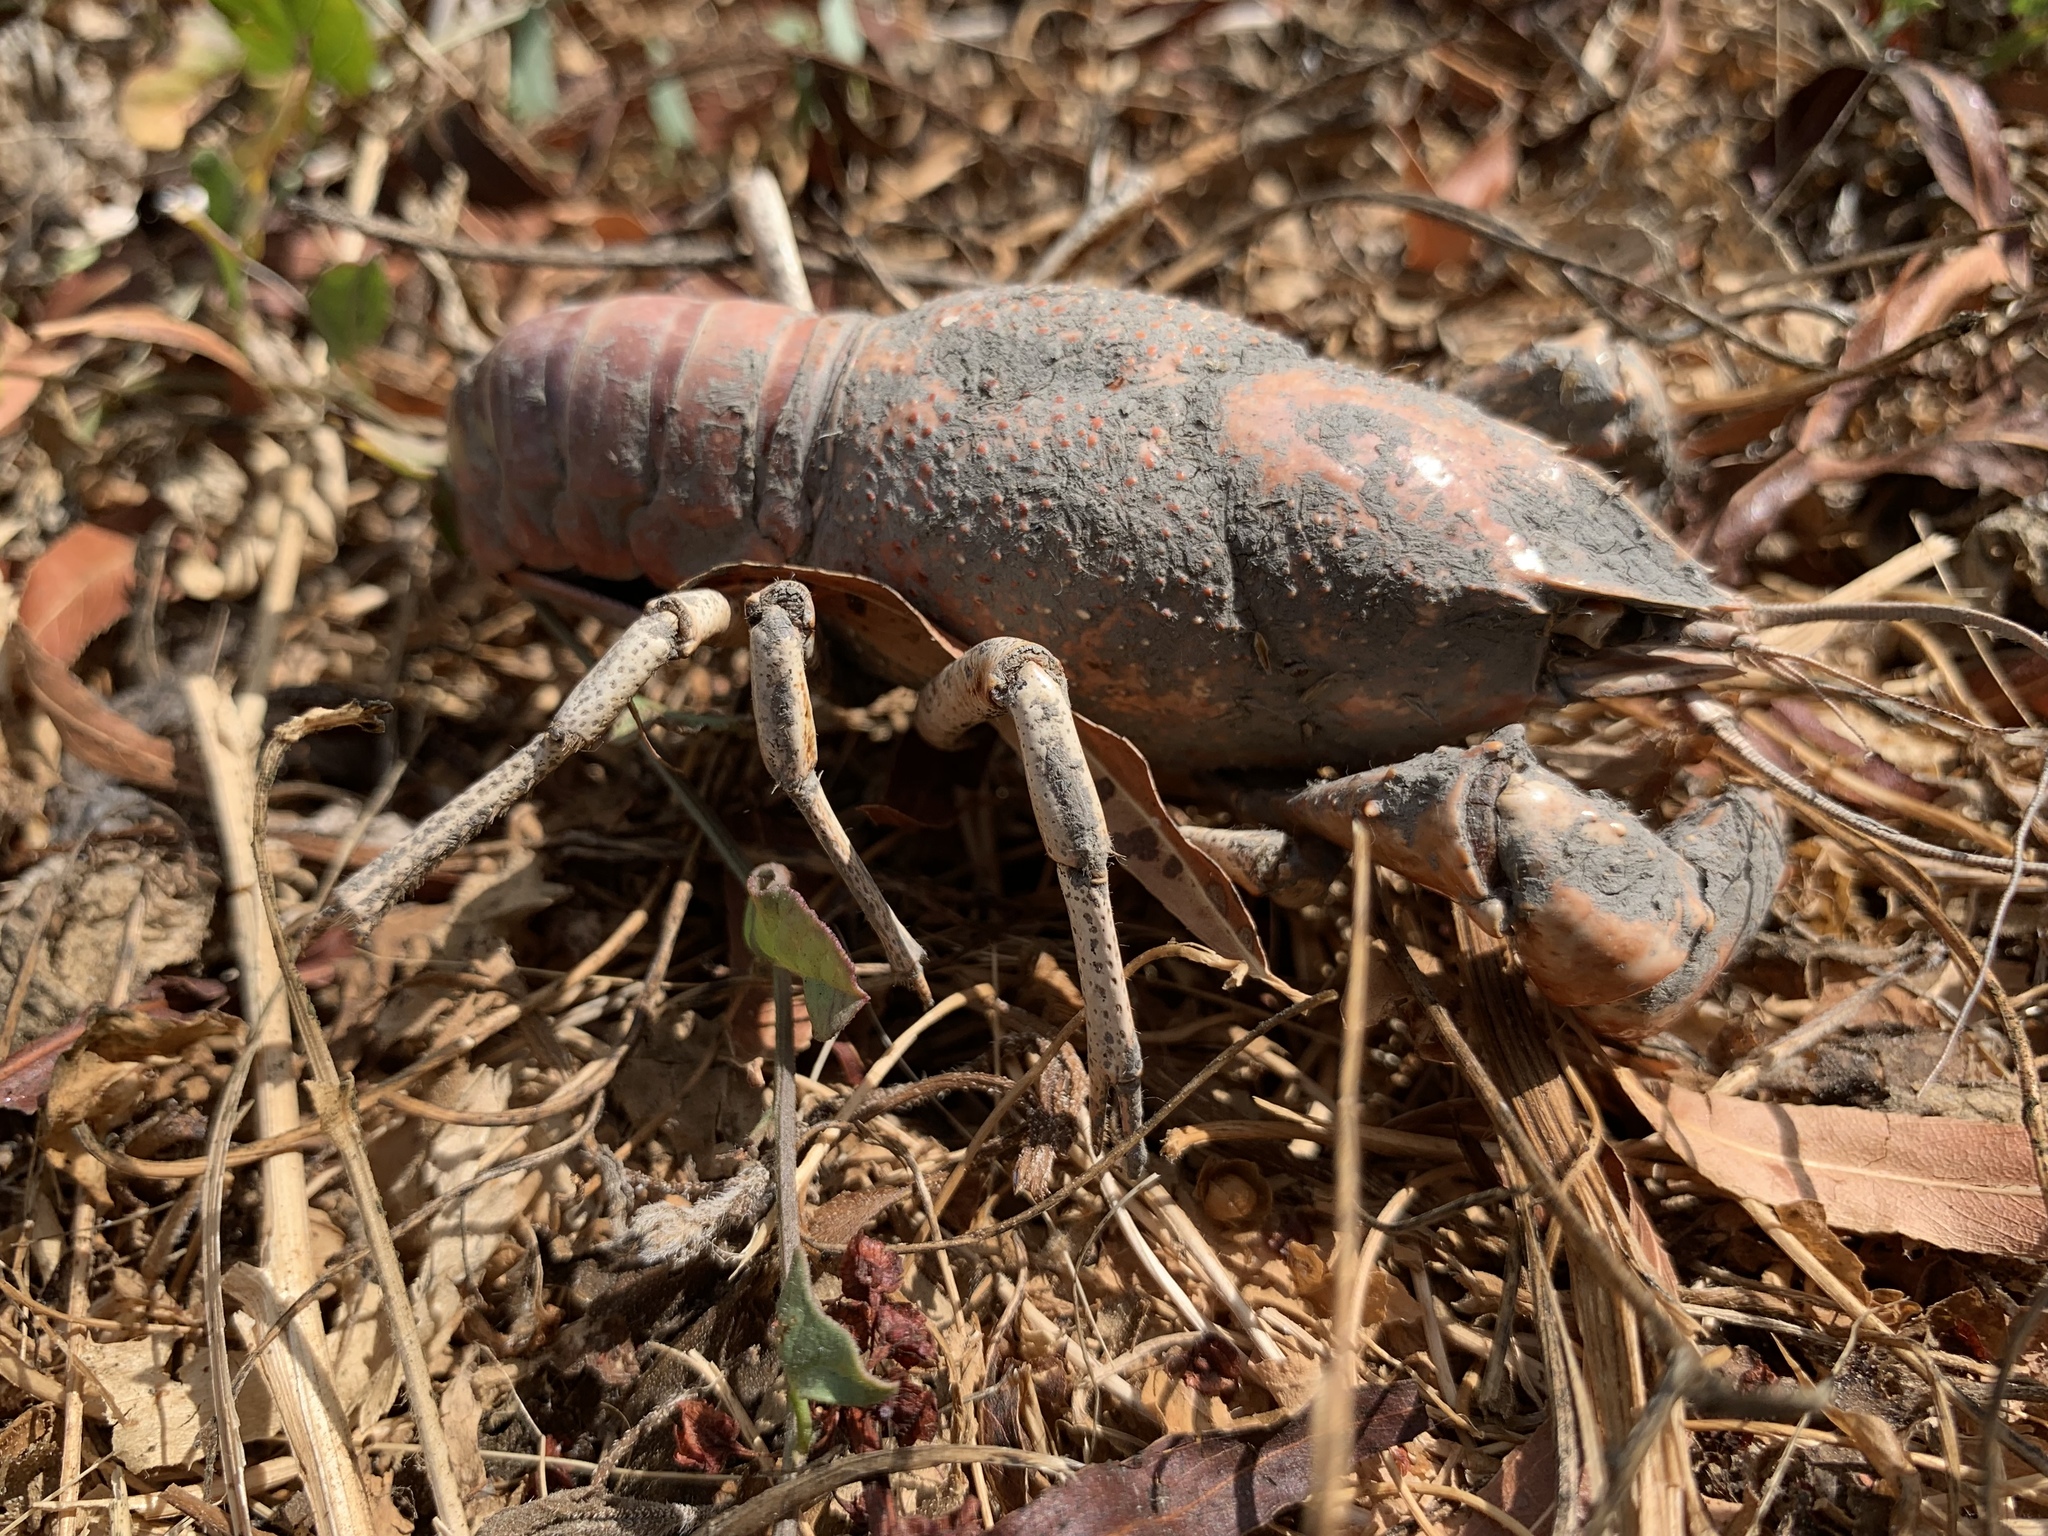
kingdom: Animalia
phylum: Arthropoda
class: Malacostraca
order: Decapoda
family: Cambaridae
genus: Procambarus
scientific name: Procambarus clarkii
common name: Red swamp crayfish
